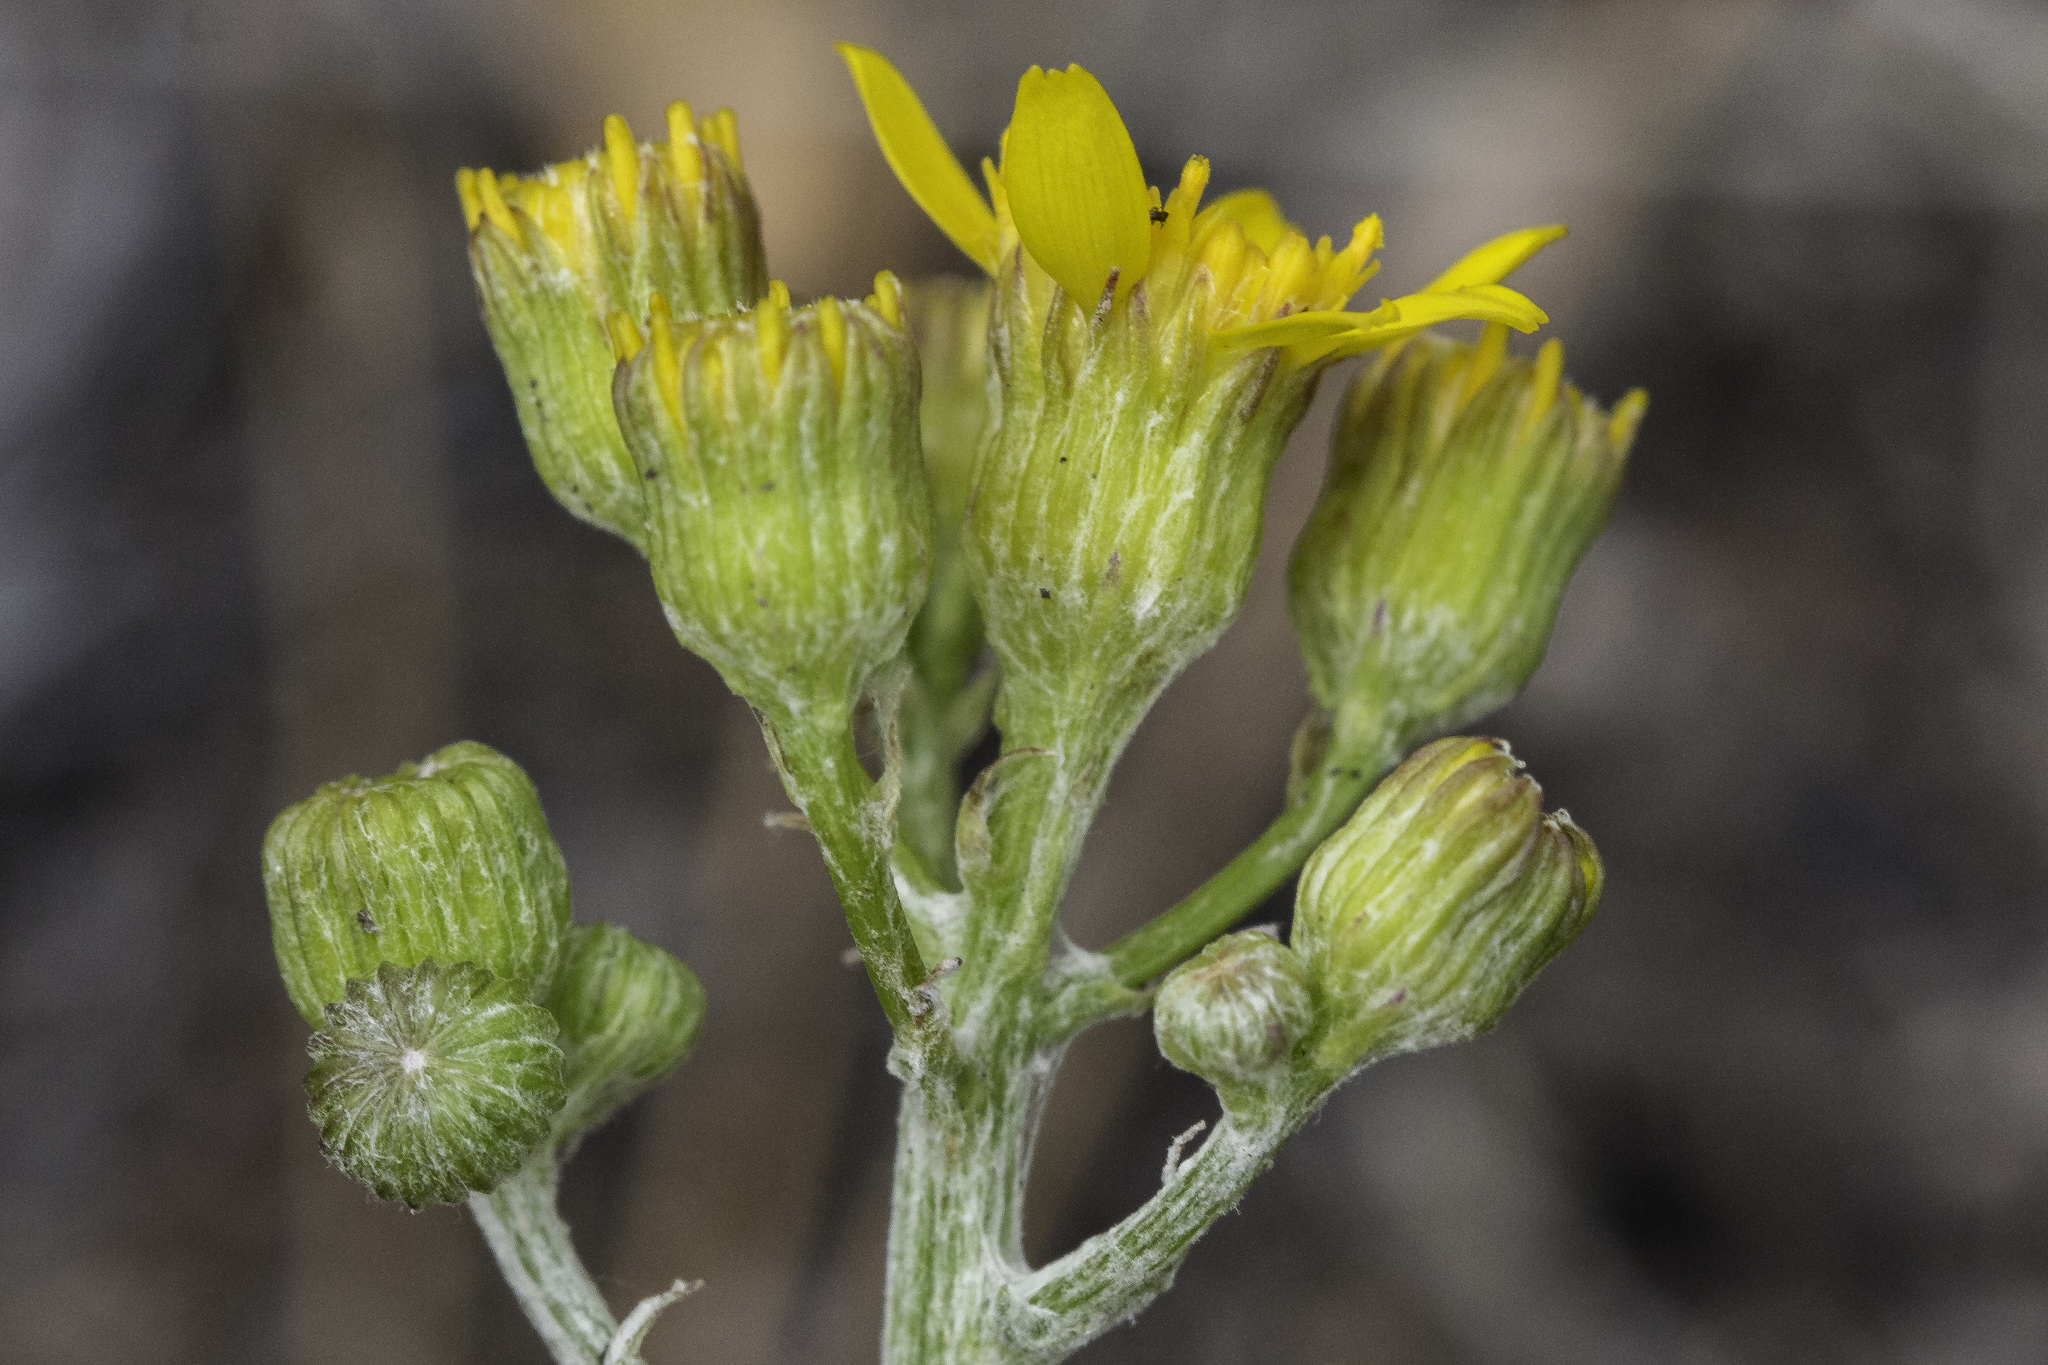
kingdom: Plantae
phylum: Tracheophyta
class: Magnoliopsida
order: Asterales
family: Asteraceae
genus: Packera
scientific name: Packera neomexicana
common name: New mexico butterweed
